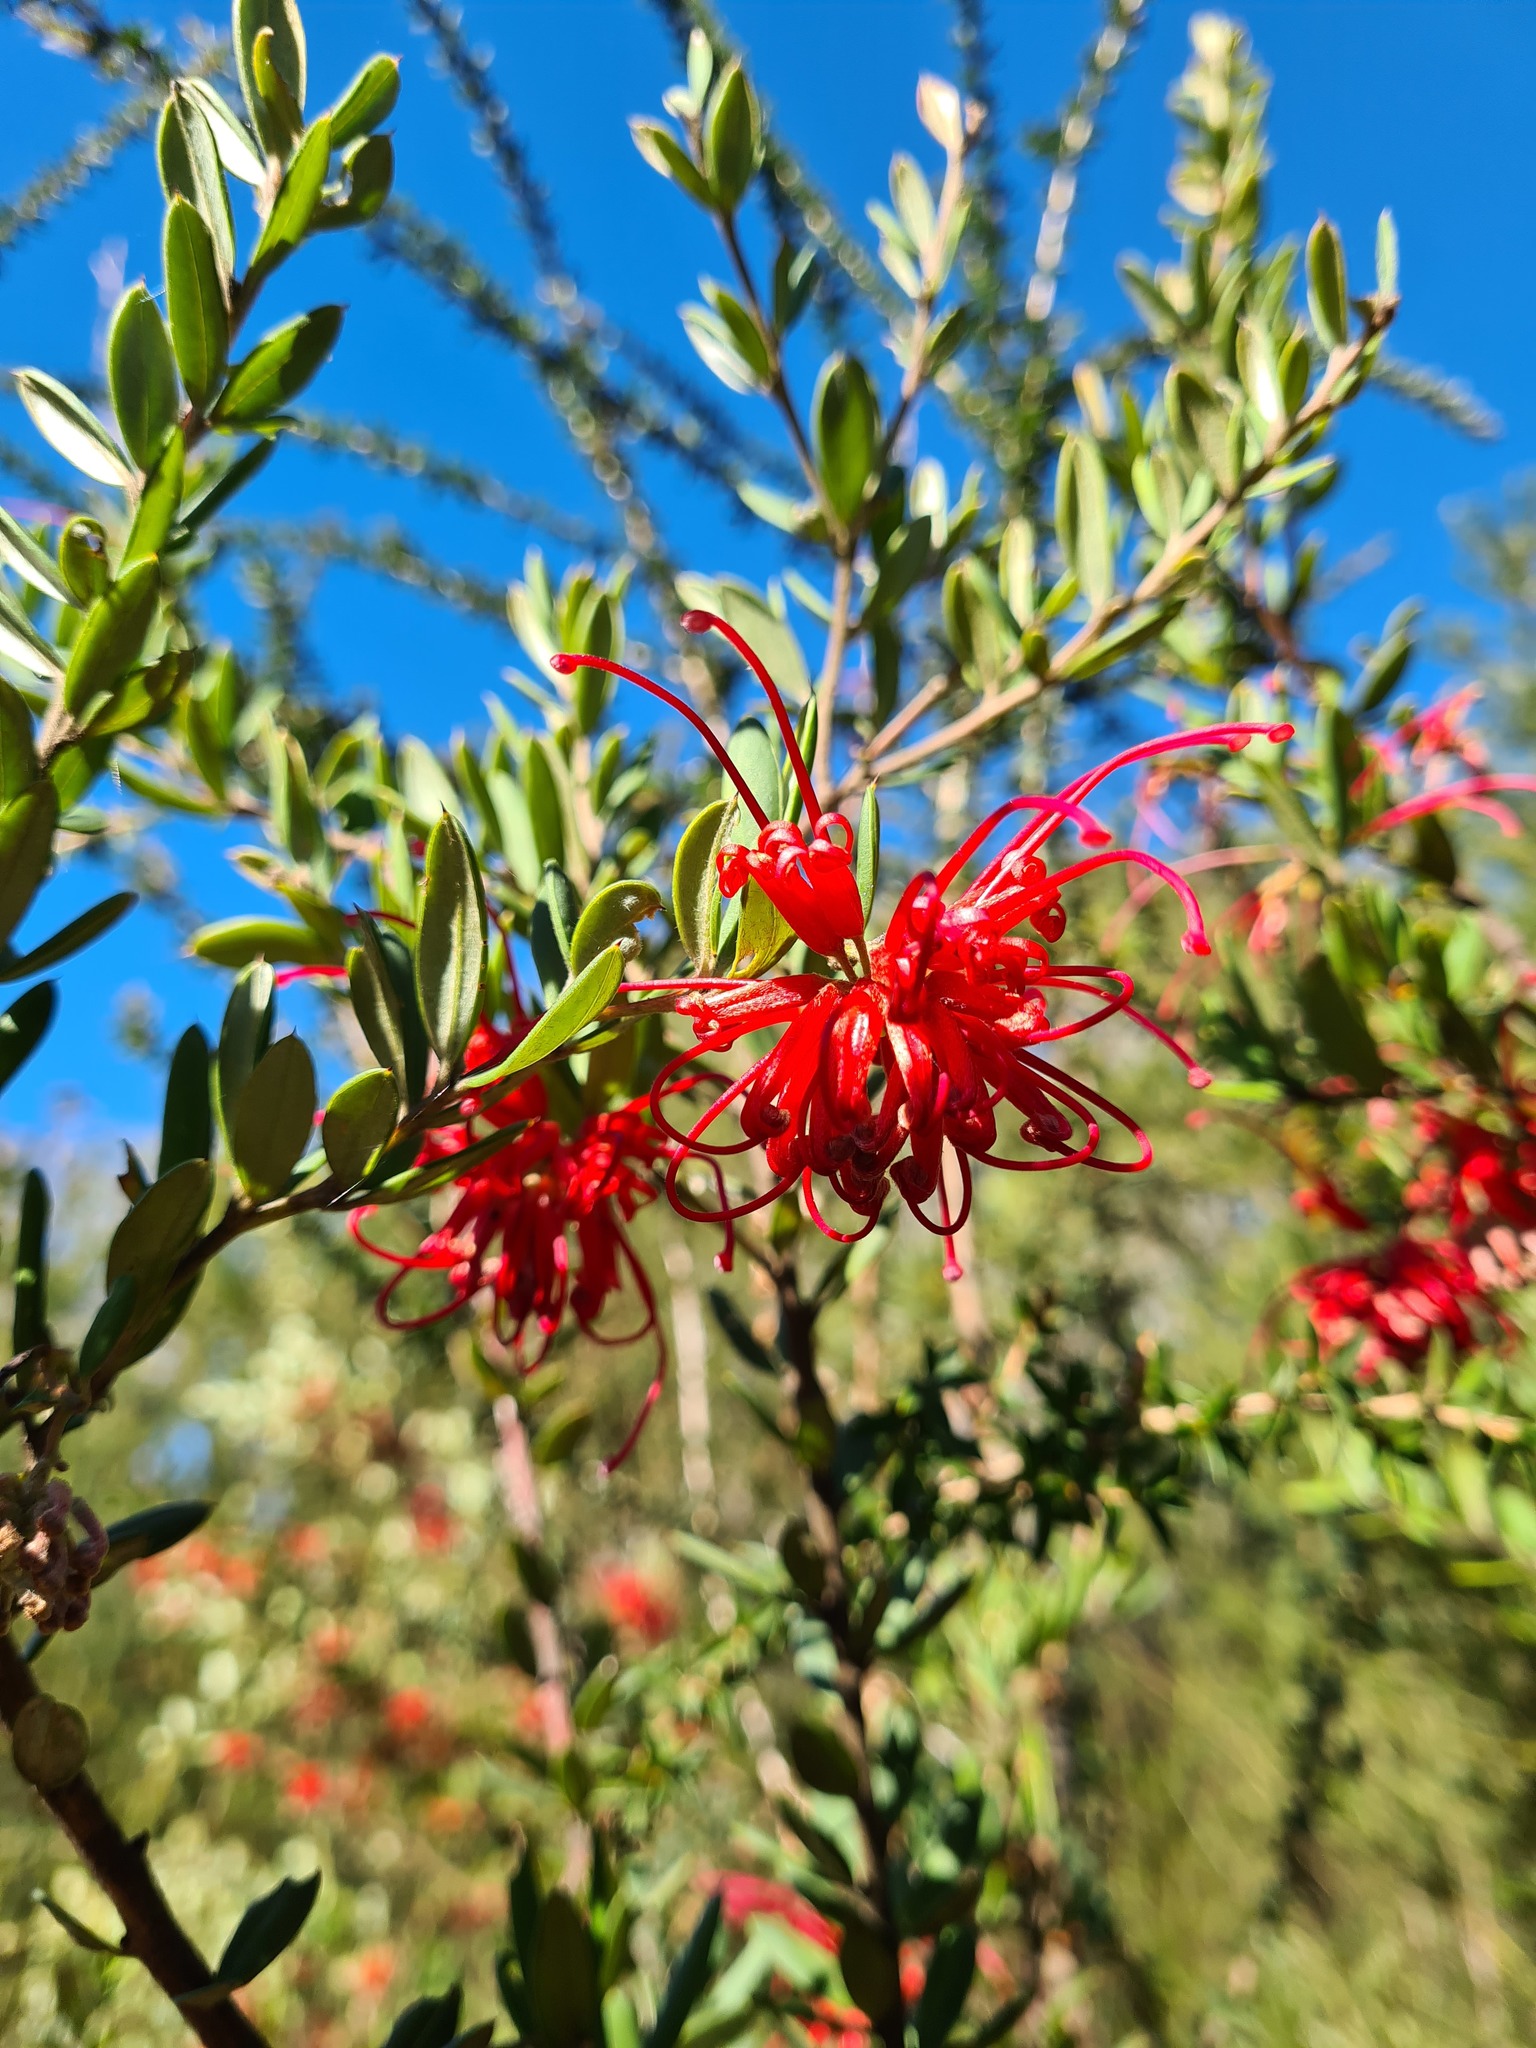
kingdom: Plantae
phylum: Tracheophyta
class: Magnoliopsida
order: Proteales
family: Proteaceae
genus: Grevillea
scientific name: Grevillea speciosa
